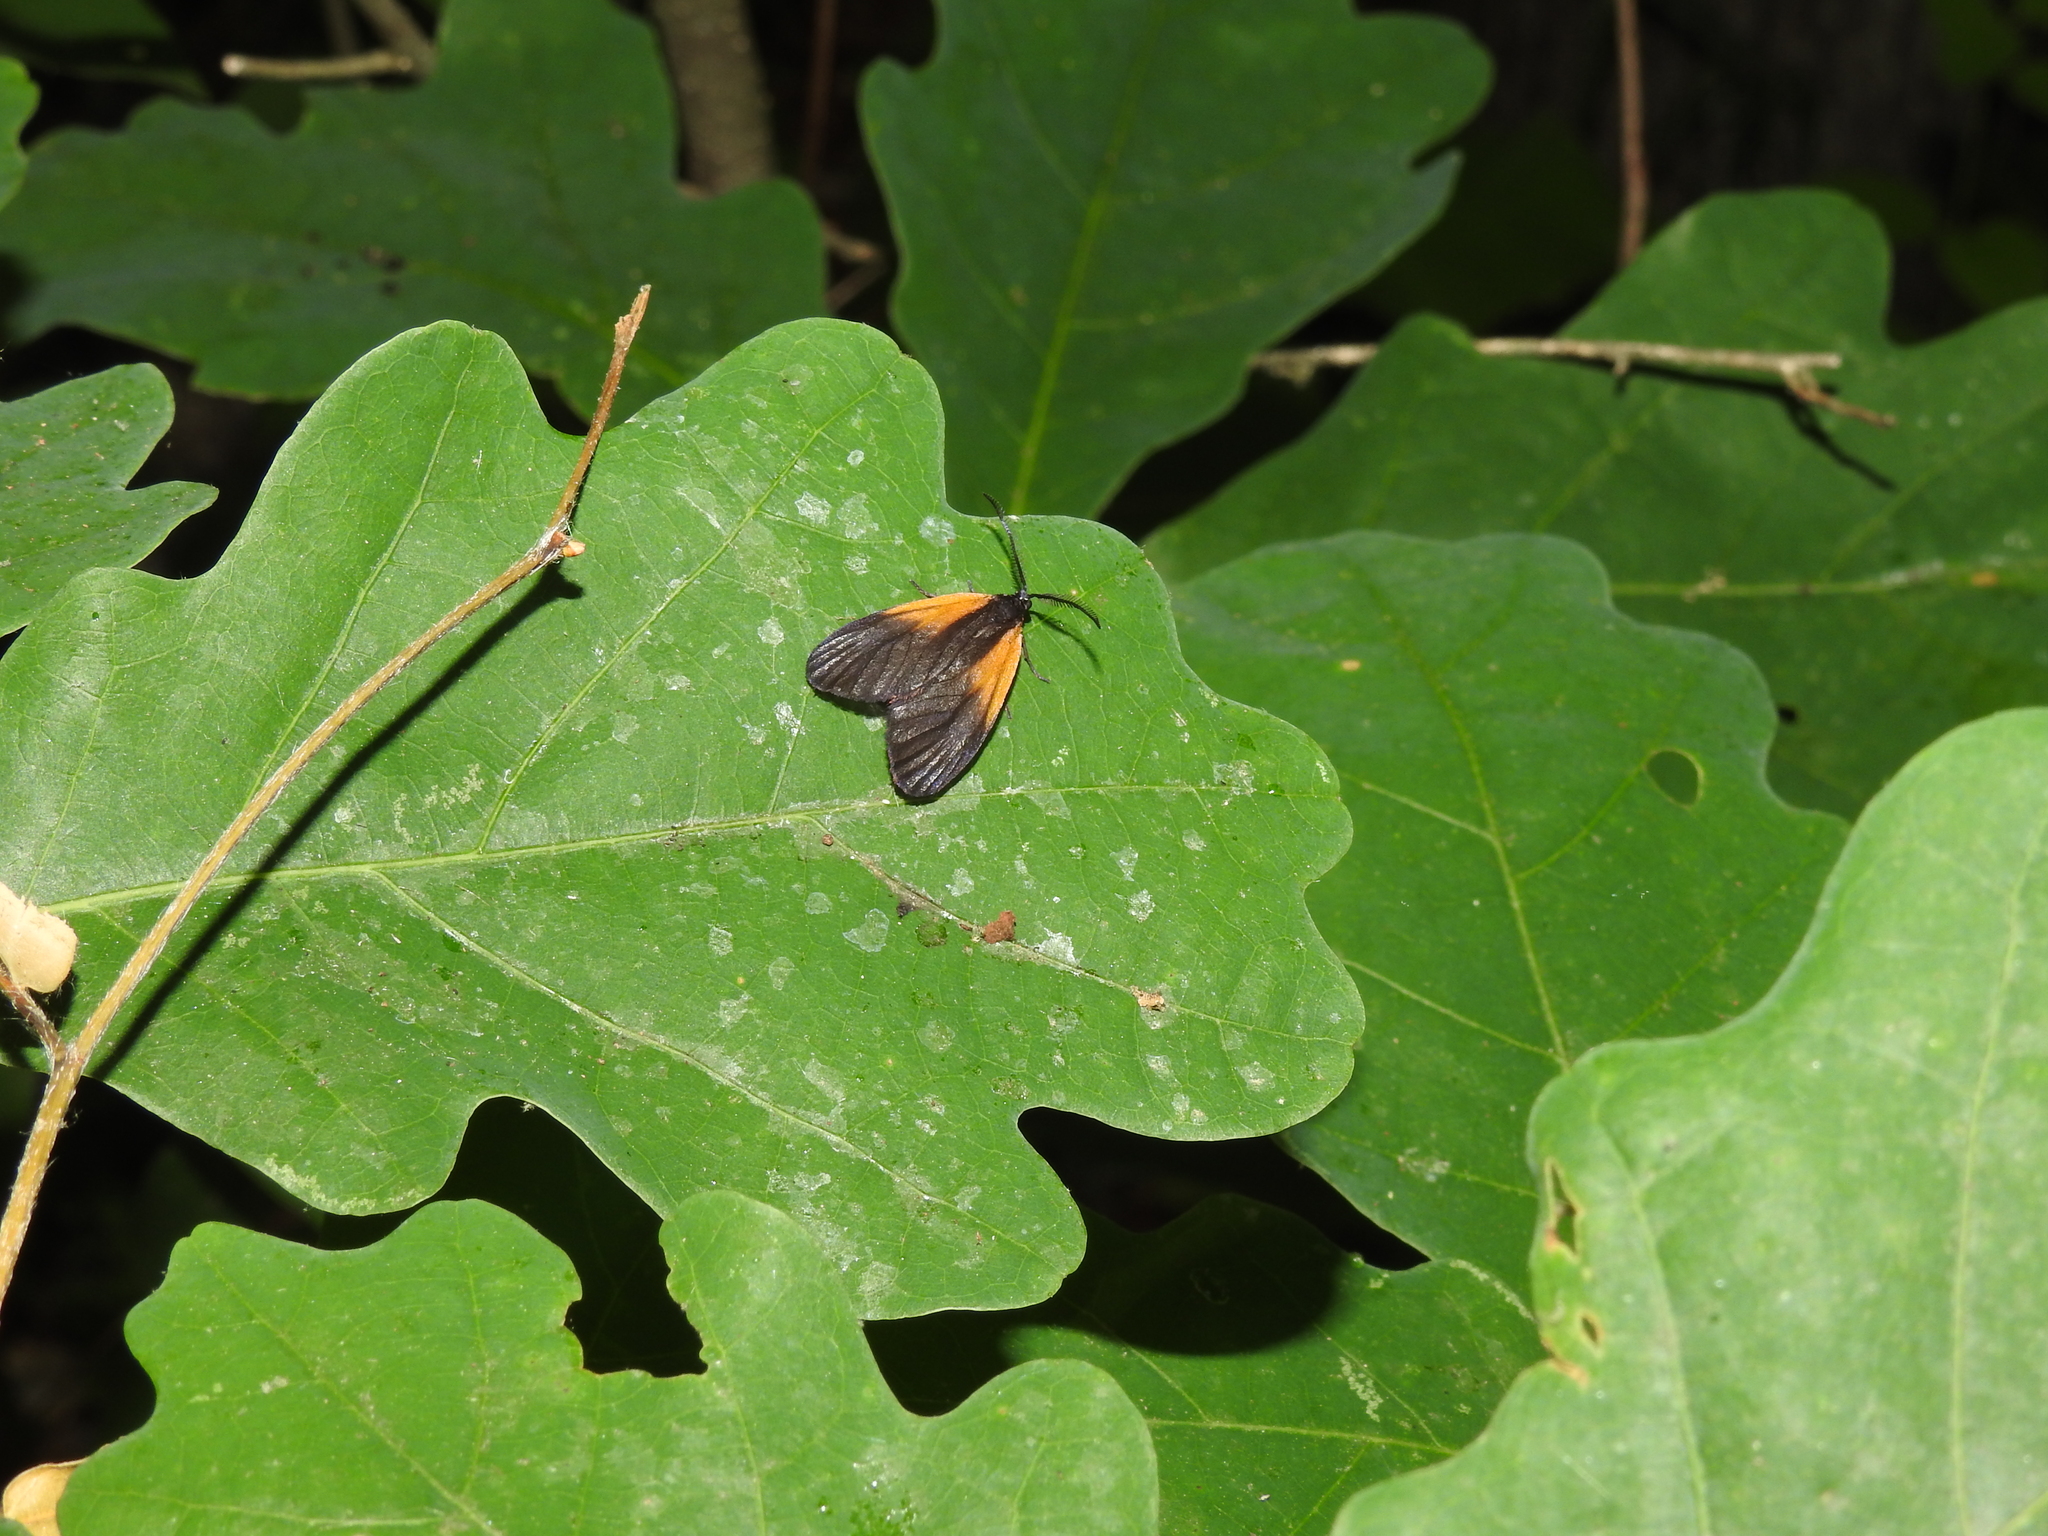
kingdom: Animalia
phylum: Arthropoda
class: Insecta
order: Lepidoptera
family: Zygaenidae
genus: Malthaca
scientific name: Malthaca dimidiata
